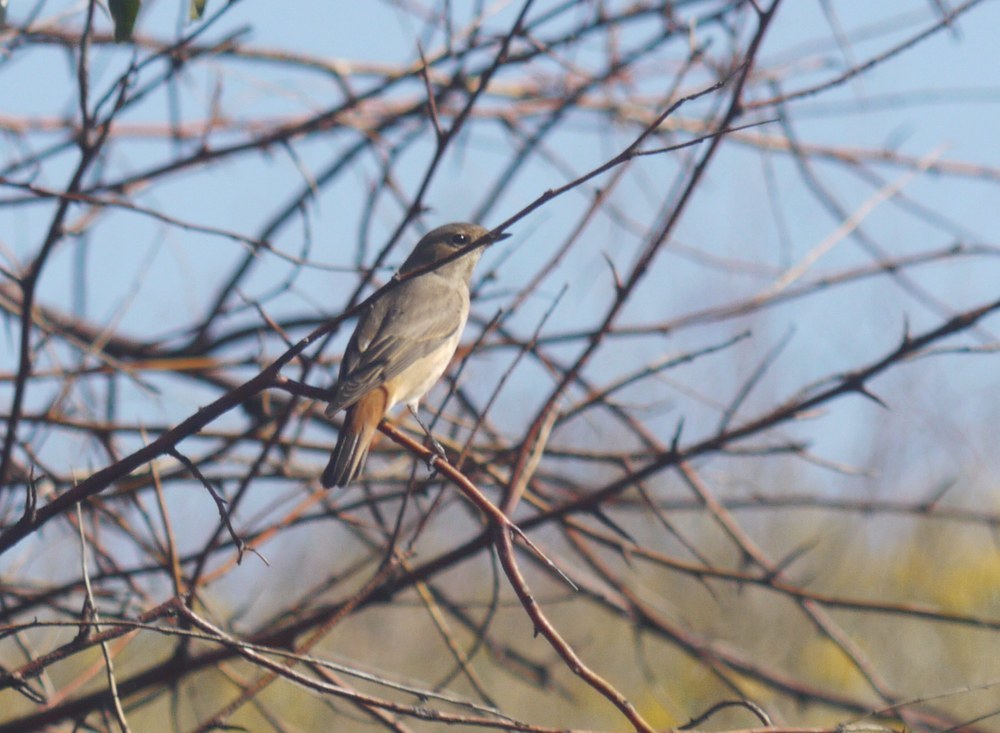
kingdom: Animalia
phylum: Chordata
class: Aves
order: Passeriformes
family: Muscicapidae
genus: Phoenicurus
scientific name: Phoenicurus phoenicurus
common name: Common redstart
